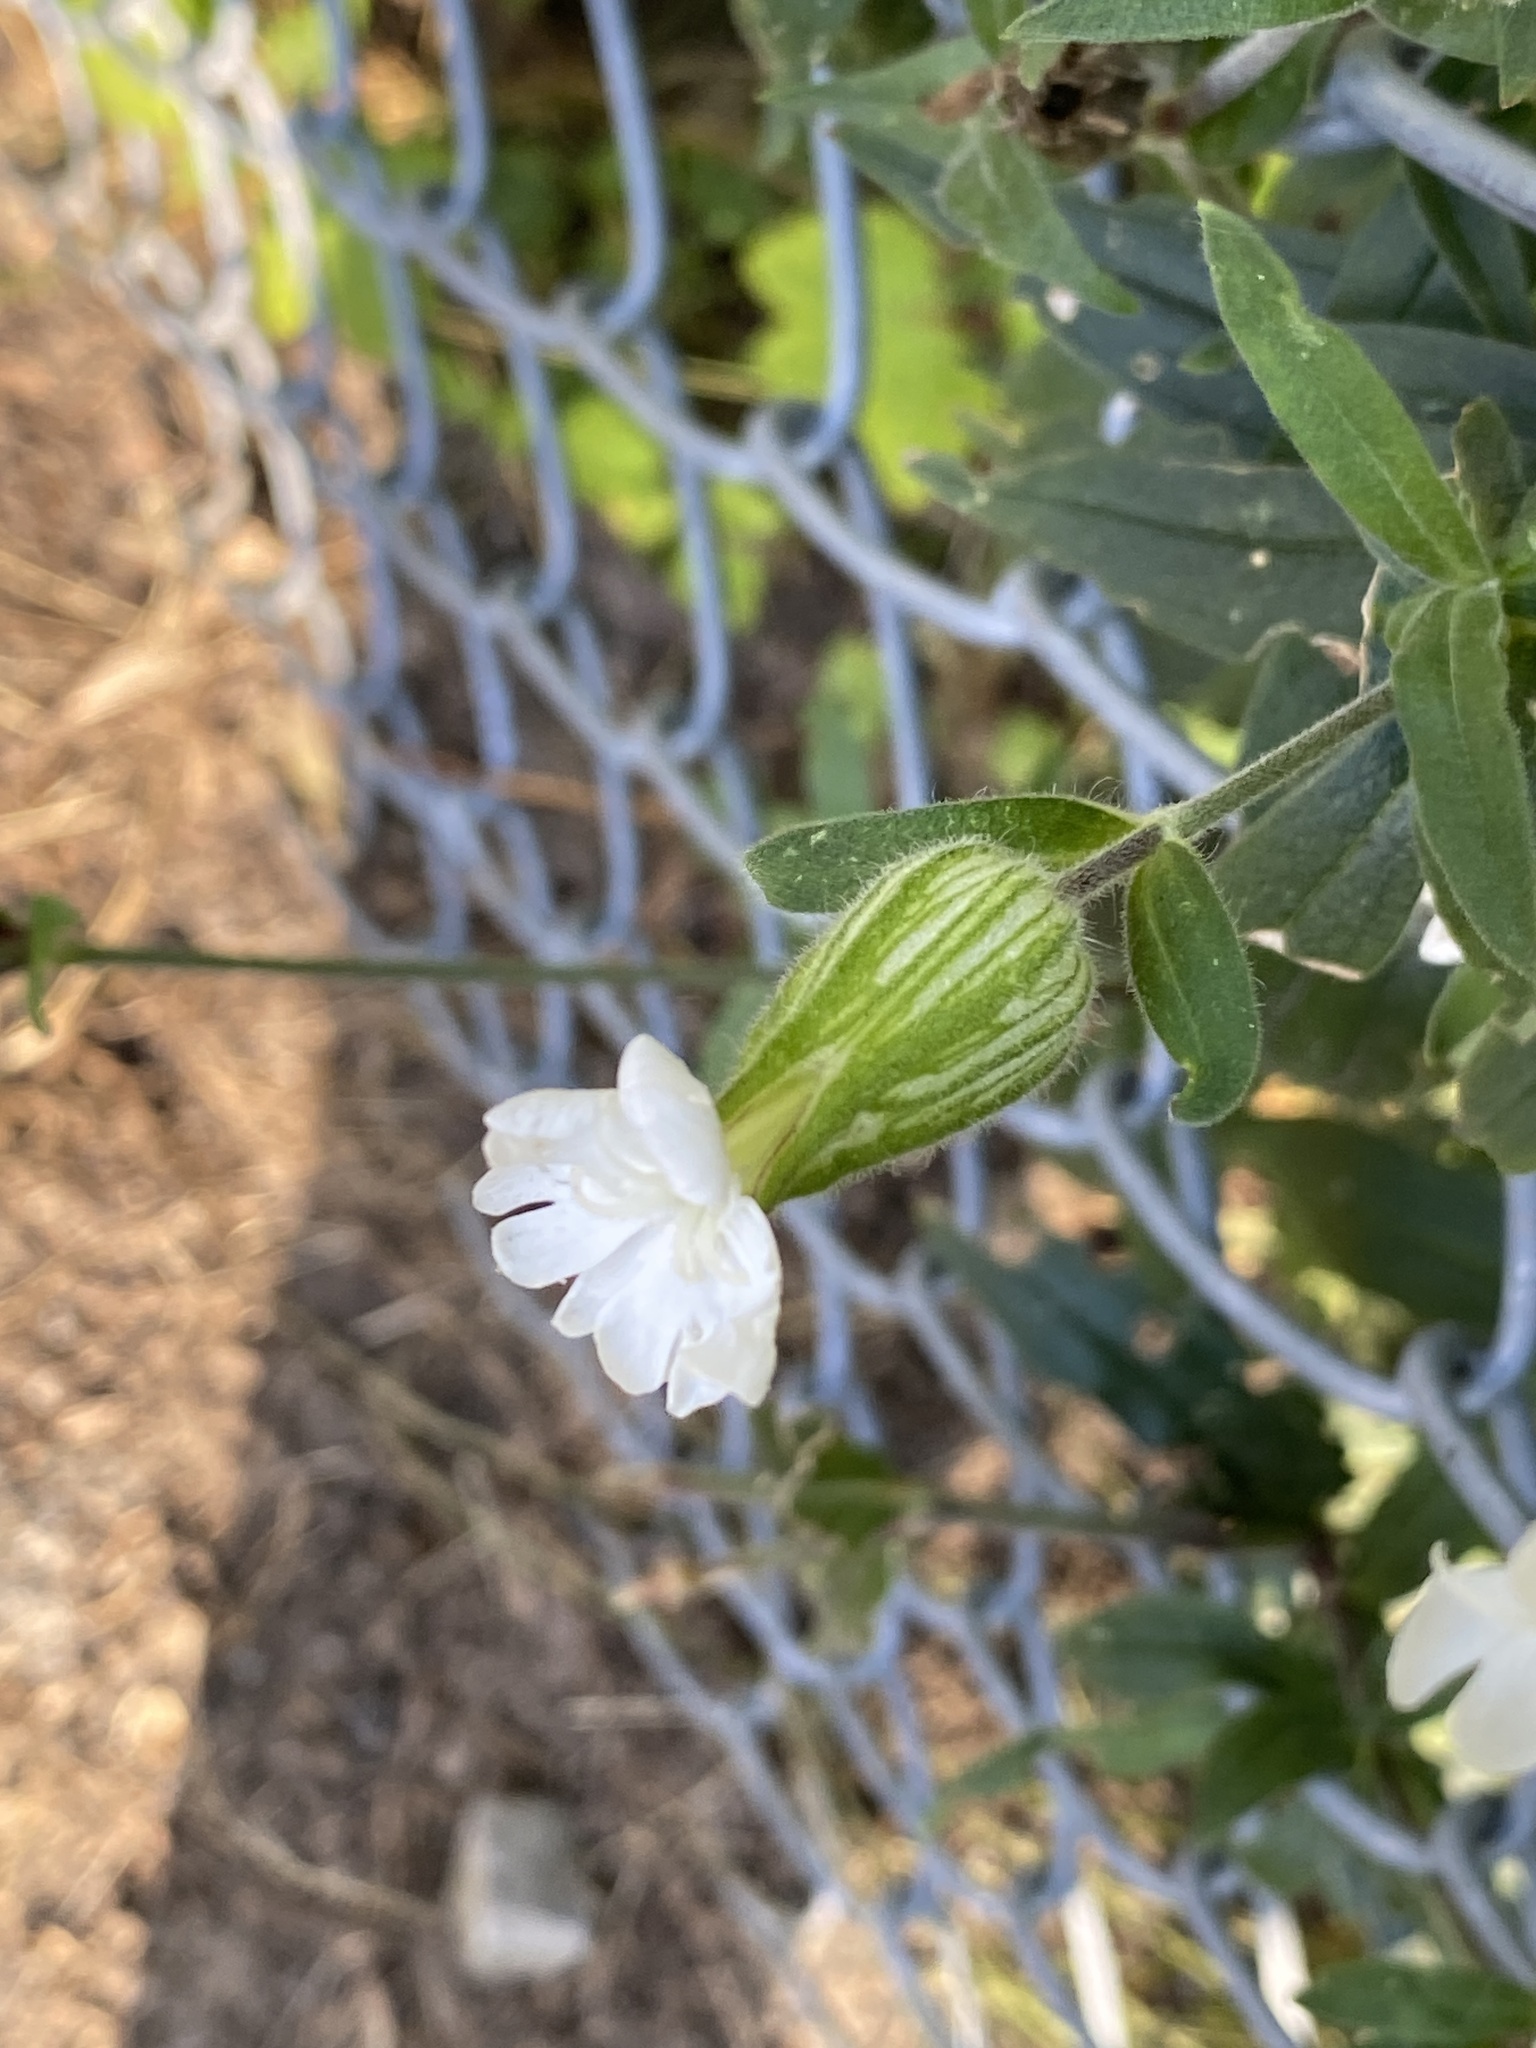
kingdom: Plantae
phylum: Tracheophyta
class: Magnoliopsida
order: Caryophyllales
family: Caryophyllaceae
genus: Silene
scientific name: Silene latifolia
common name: White campion
